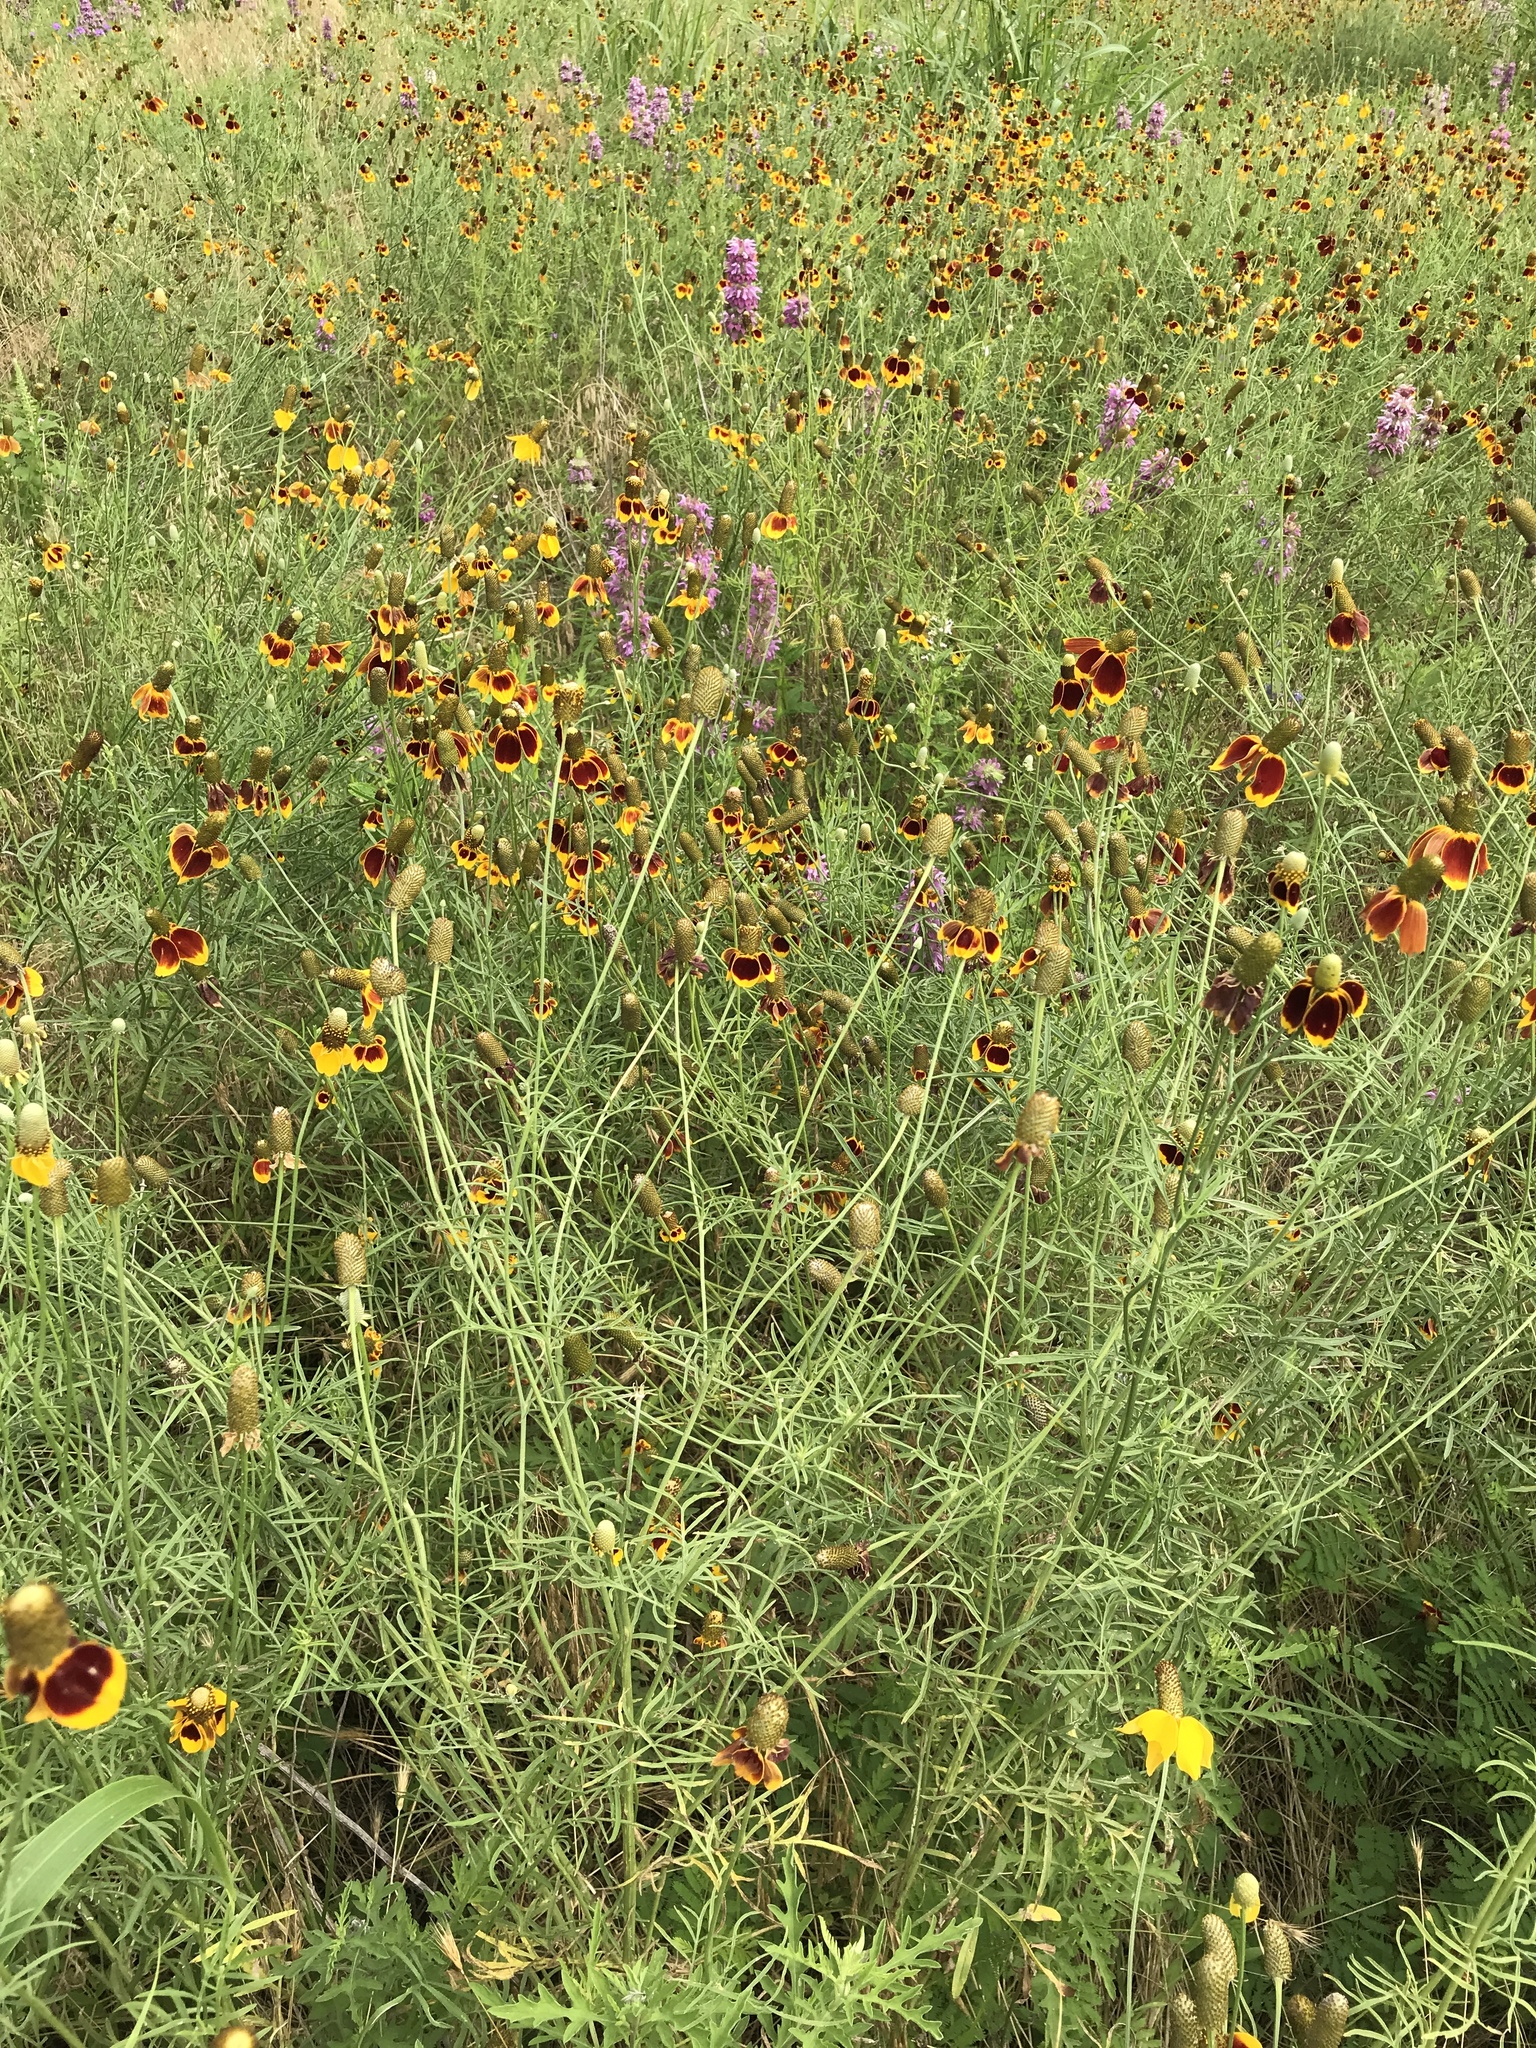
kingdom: Plantae
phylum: Tracheophyta
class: Magnoliopsida
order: Asterales
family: Asteraceae
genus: Ratibida
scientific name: Ratibida columnifera
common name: Prairie coneflower
